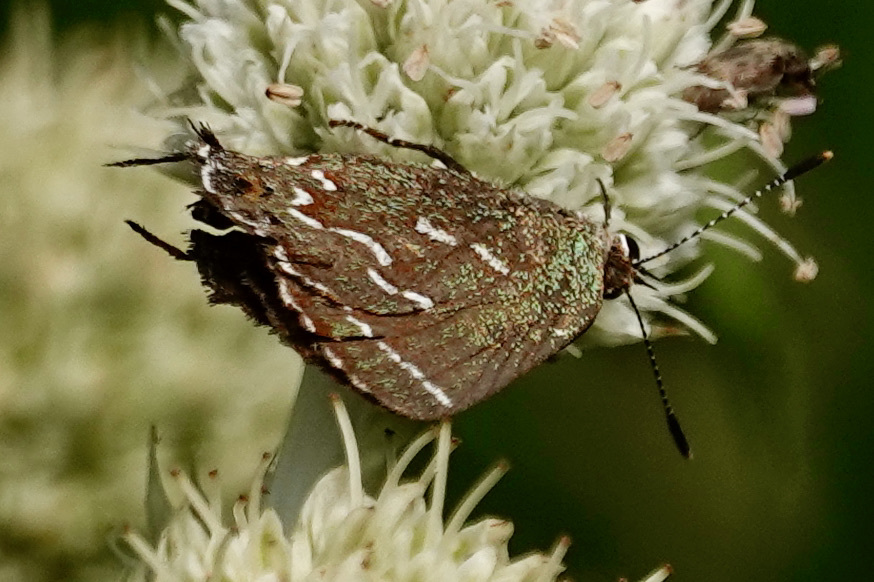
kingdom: Animalia
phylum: Arthropoda
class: Insecta
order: Lepidoptera
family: Lycaenidae
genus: Mitoura
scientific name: Mitoura gryneus
